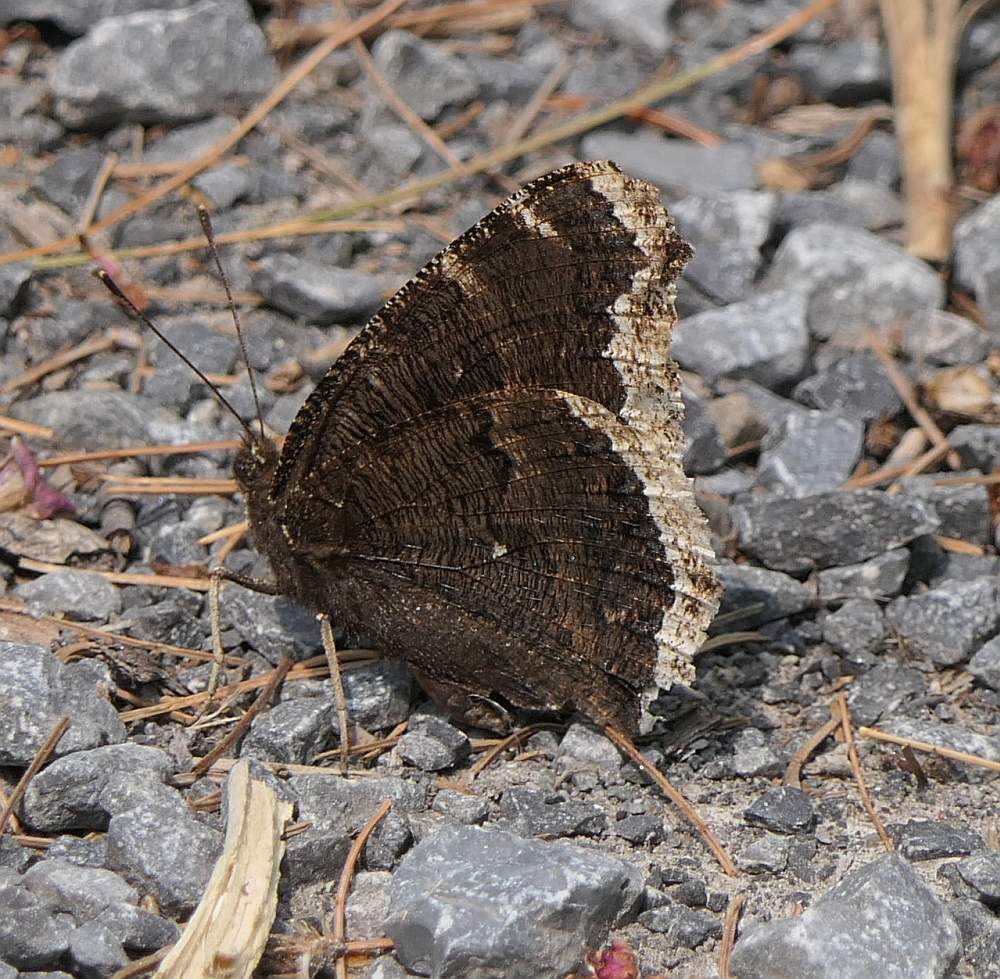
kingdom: Animalia
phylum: Arthropoda
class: Insecta
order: Lepidoptera
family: Nymphalidae
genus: Nymphalis
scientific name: Nymphalis antiopa
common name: Camberwell beauty
